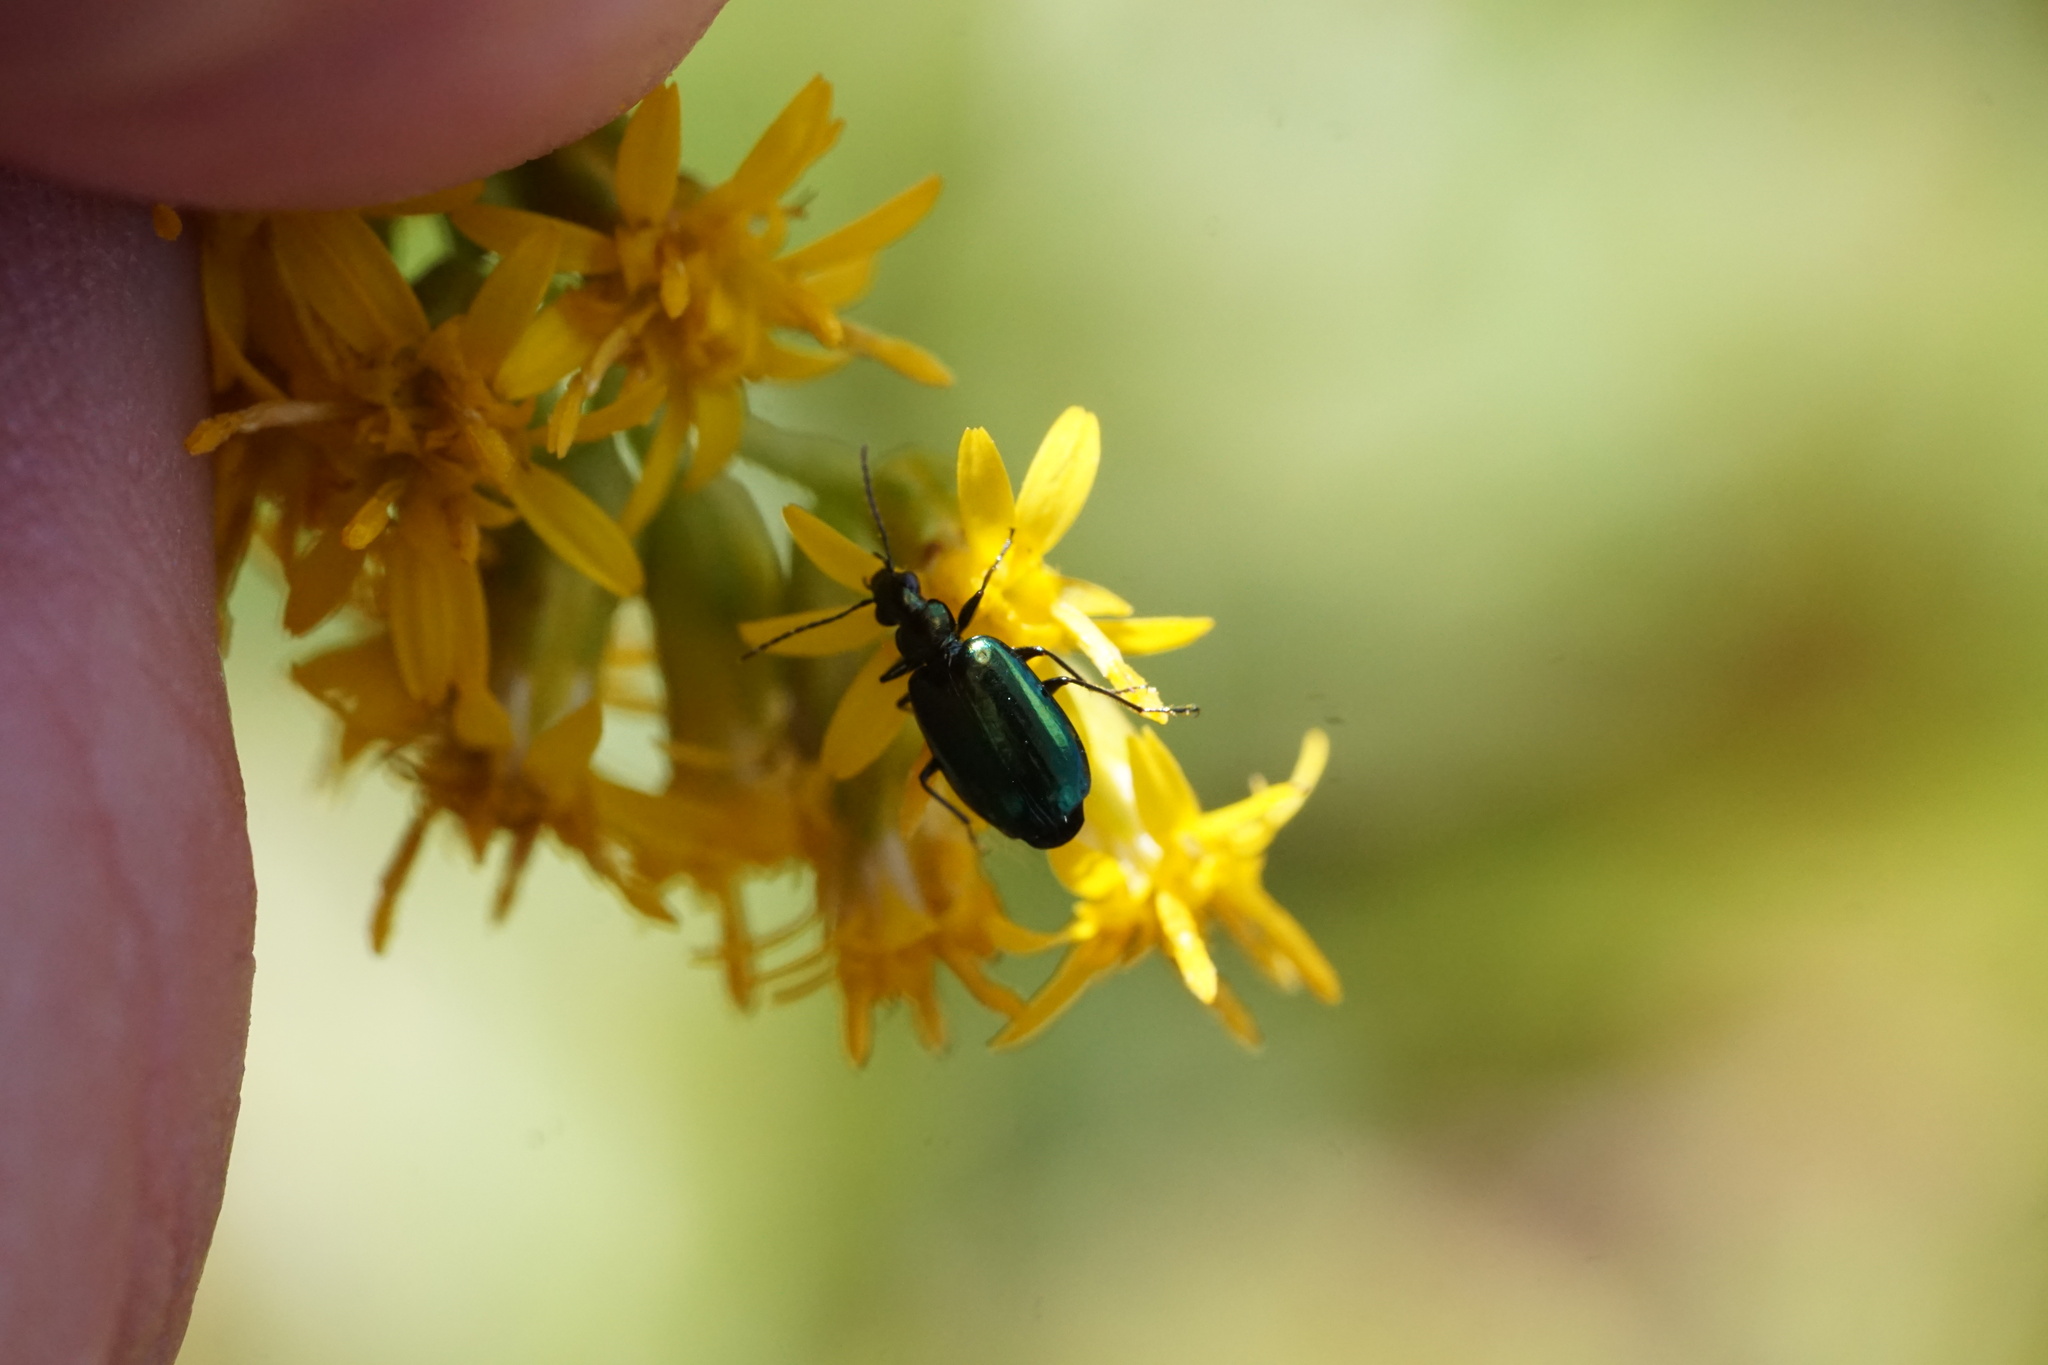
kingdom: Animalia
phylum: Arthropoda
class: Insecta
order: Coleoptera
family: Carabidae
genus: Lebia
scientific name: Lebia viridis
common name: Flower lebia beetle
